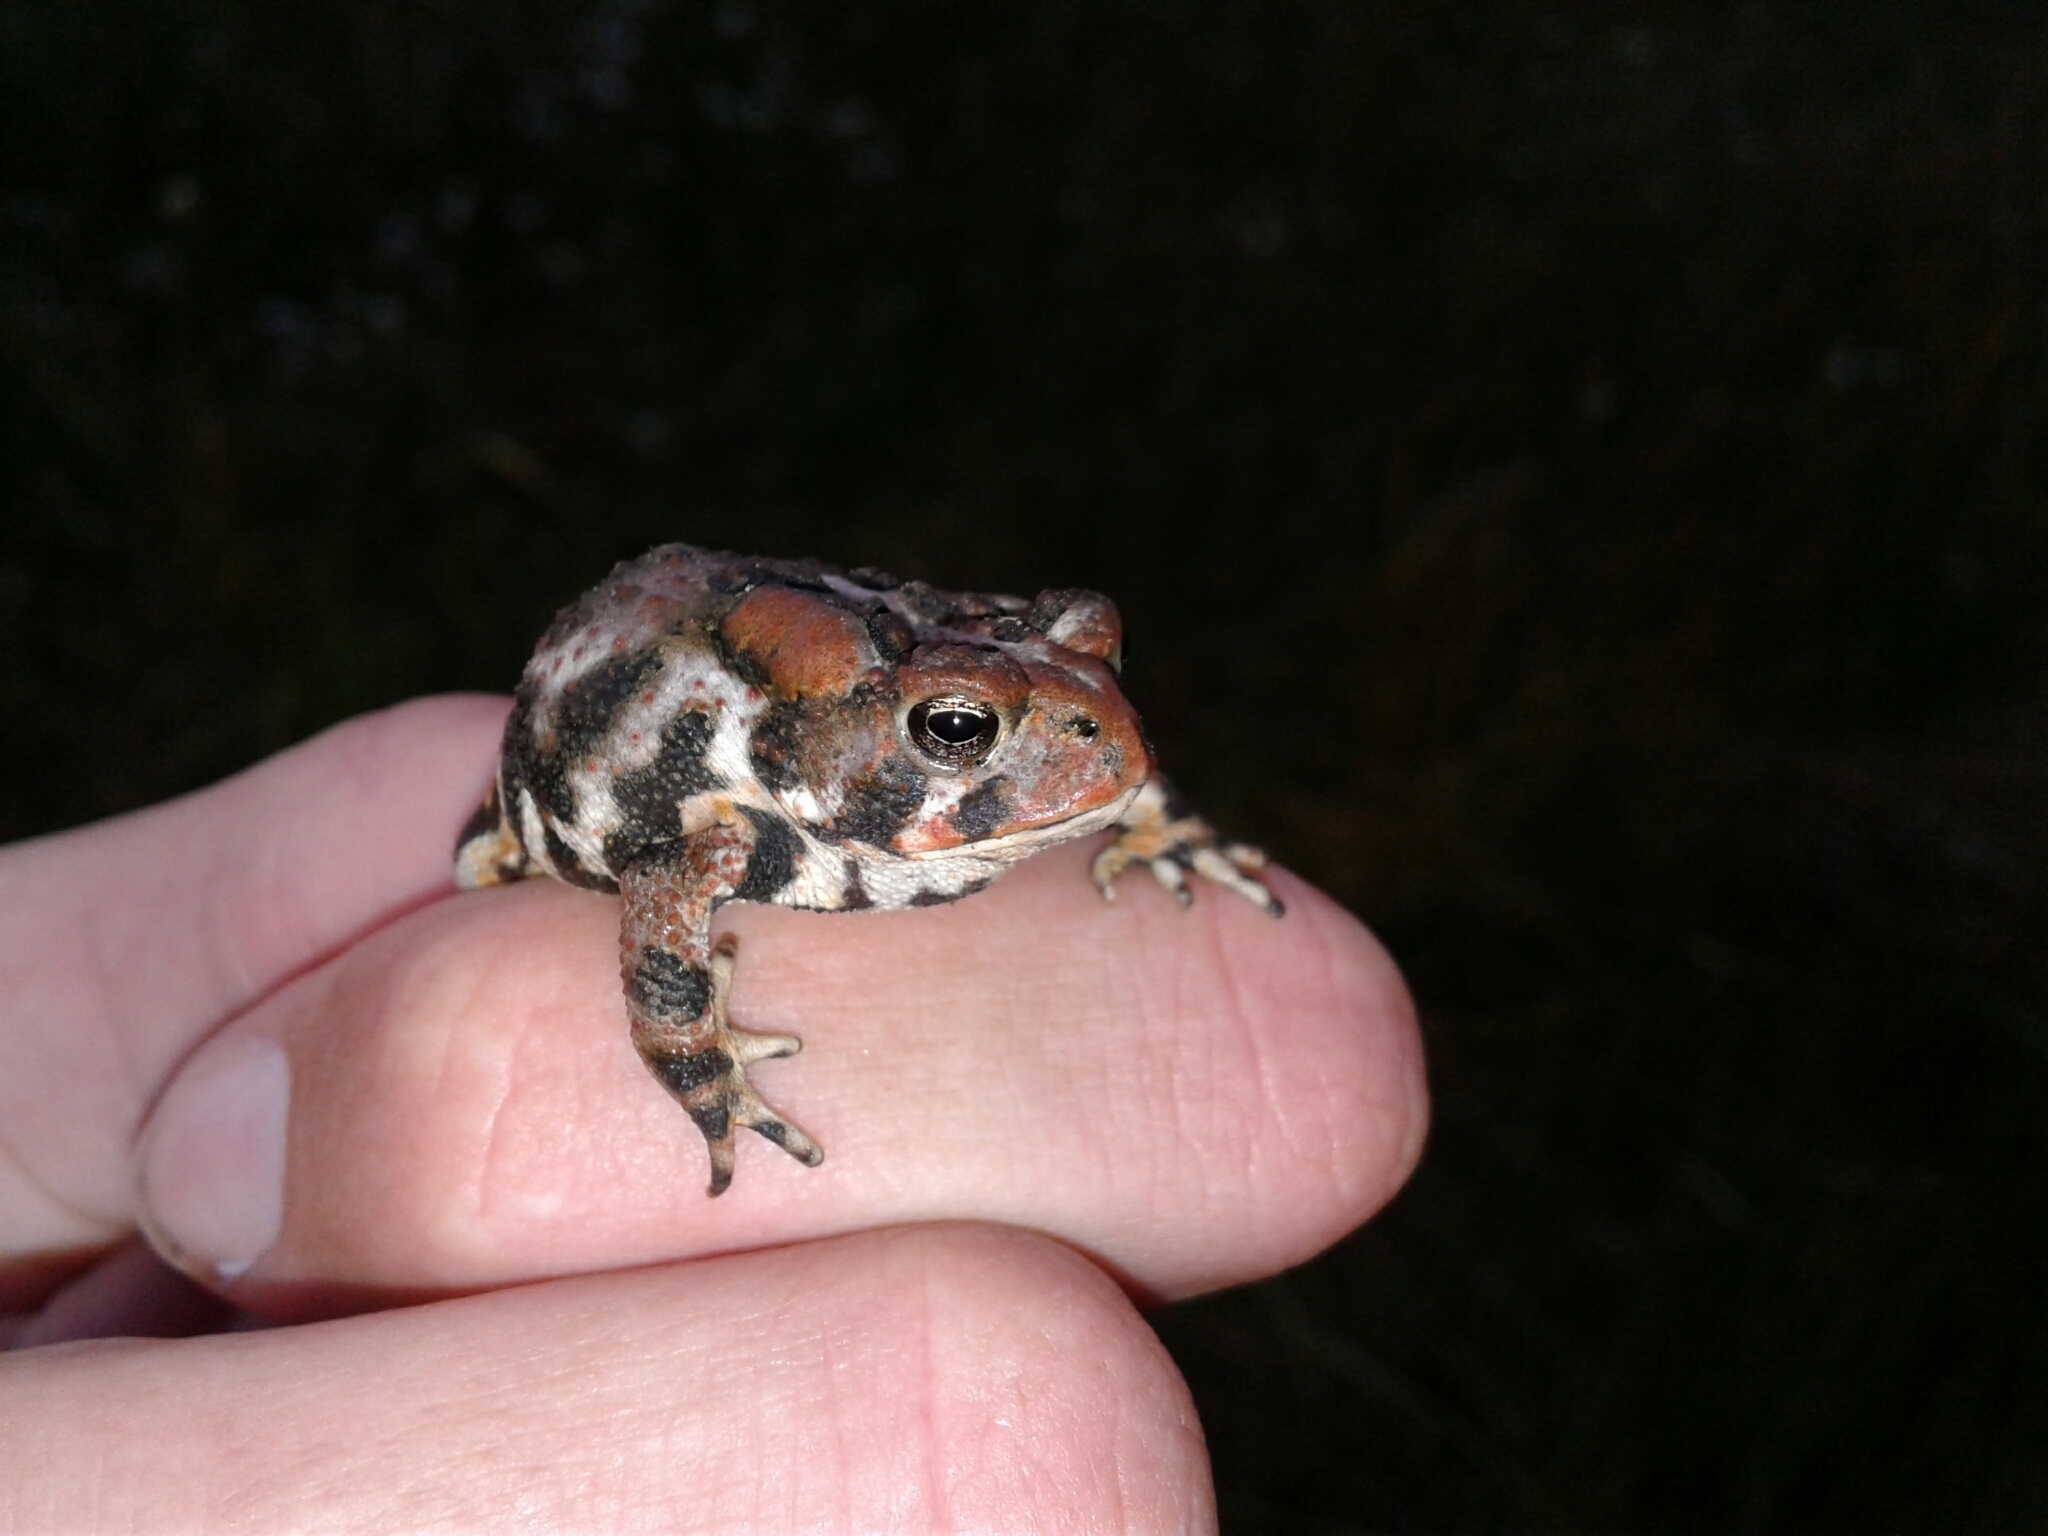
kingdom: Animalia
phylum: Chordata
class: Amphibia
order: Anura
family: Bufonidae
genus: Anaxyrus
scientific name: Anaxyrus americanus
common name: American toad
